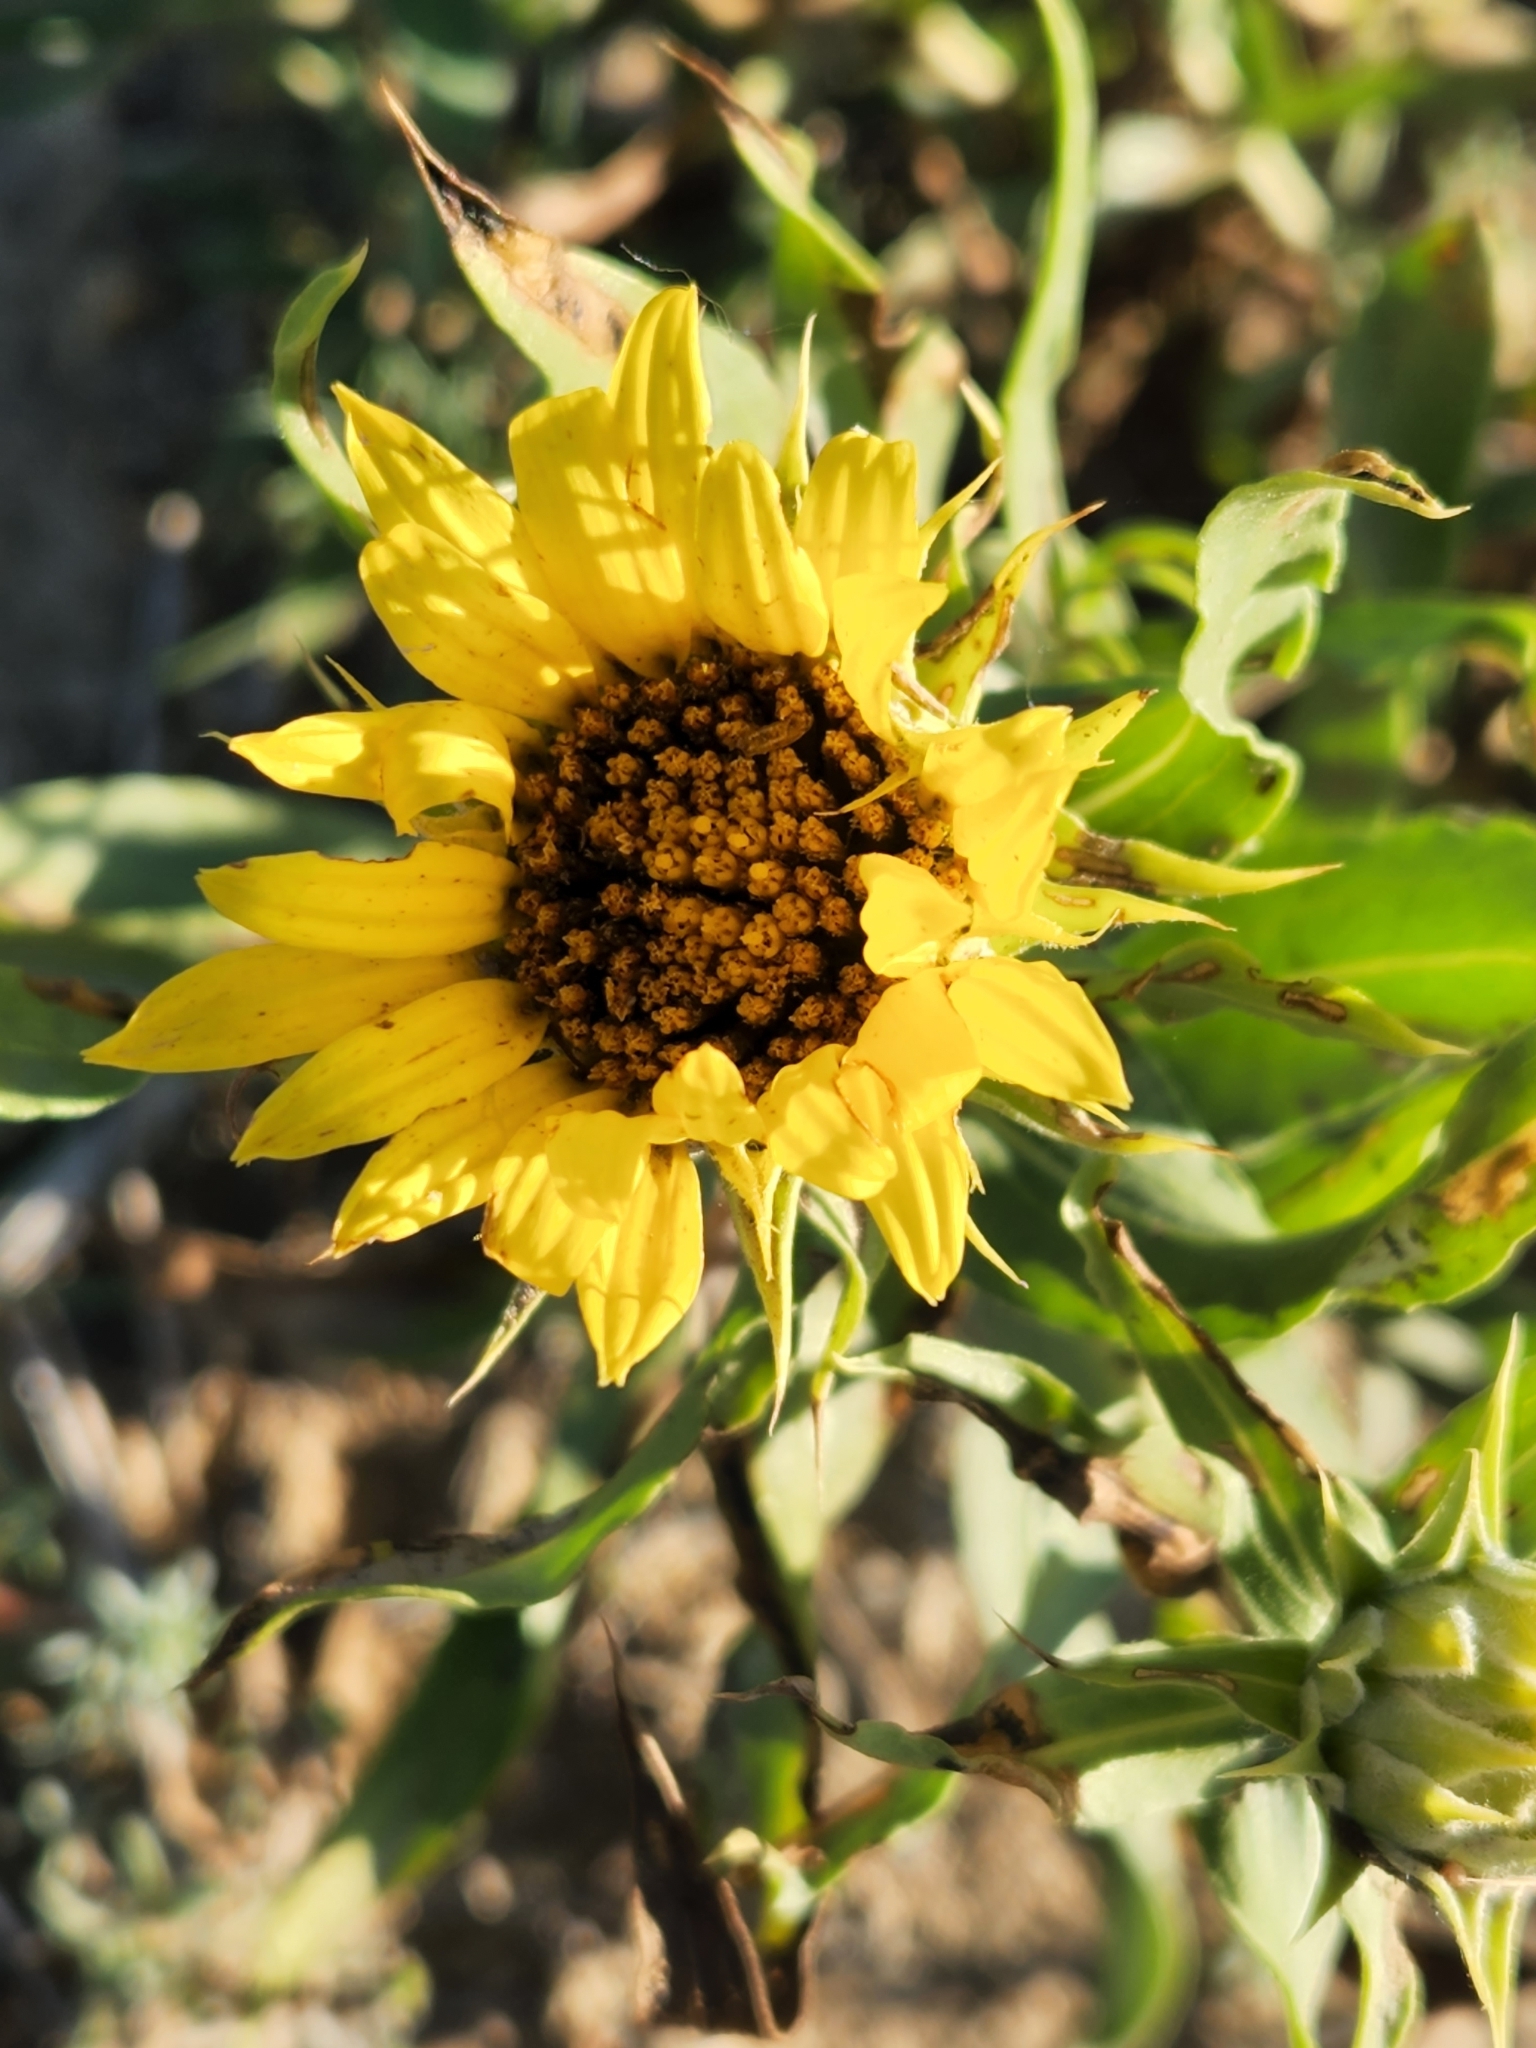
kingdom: Plantae
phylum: Tracheophyta
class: Magnoliopsida
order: Asterales
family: Asteraceae
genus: Helianthus
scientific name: Helianthus annuus
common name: Sunflower
